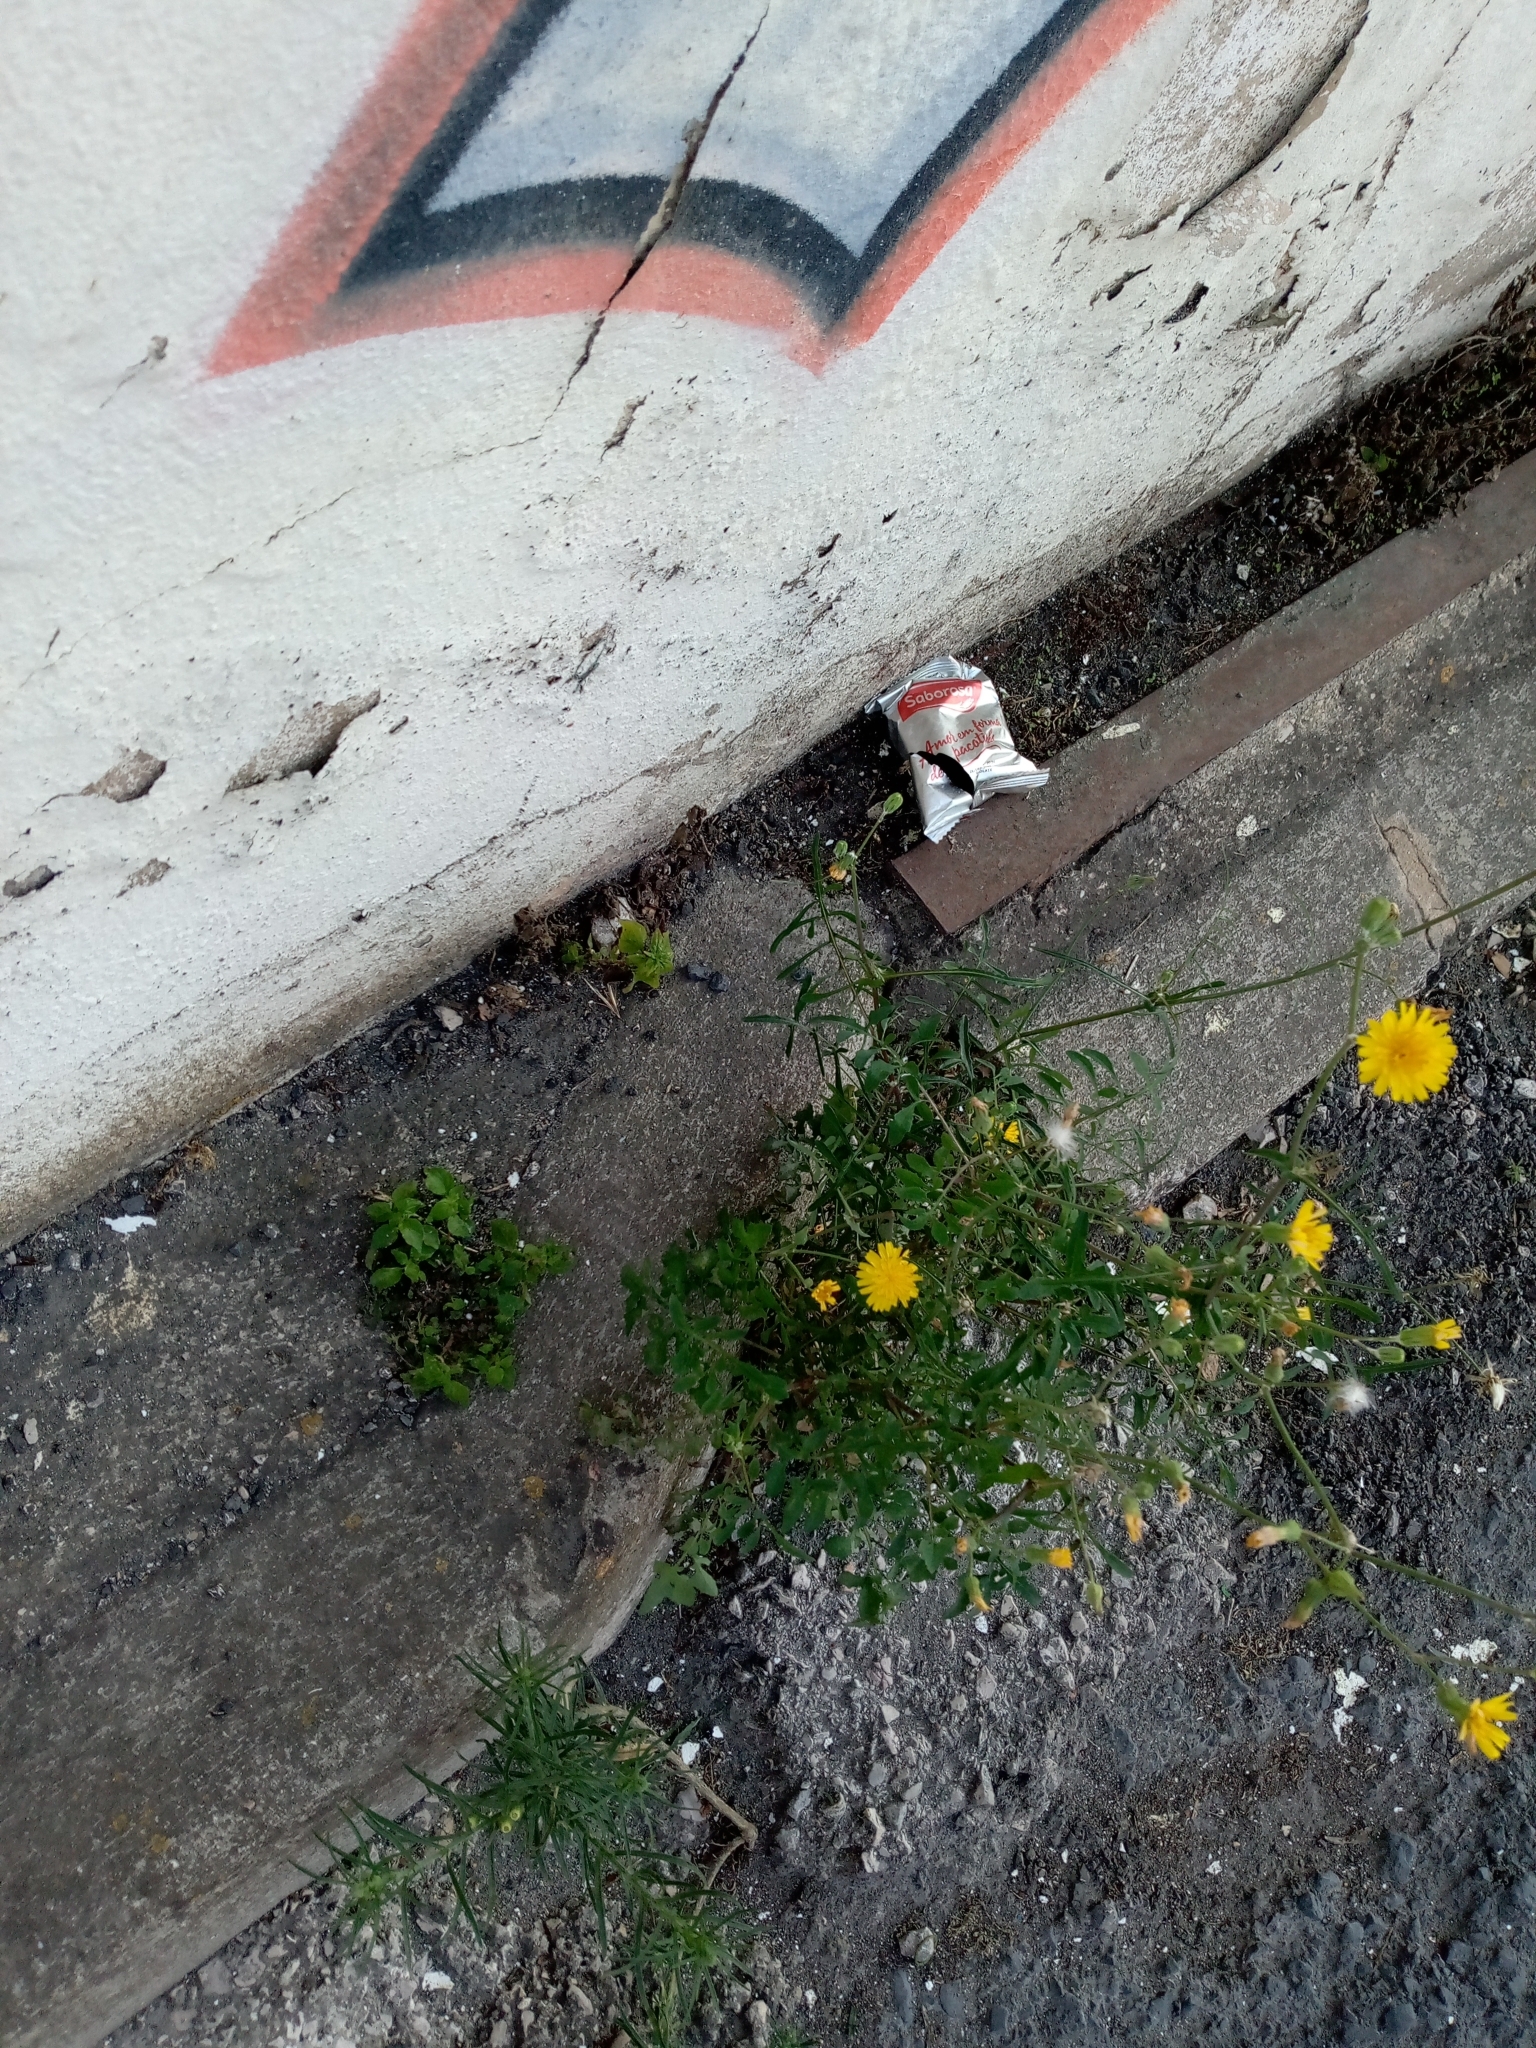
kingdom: Plantae
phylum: Tracheophyta
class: Magnoliopsida
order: Asterales
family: Asteraceae
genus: Sonchus
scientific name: Sonchus tenerrimus
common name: Clammy sowthistle
